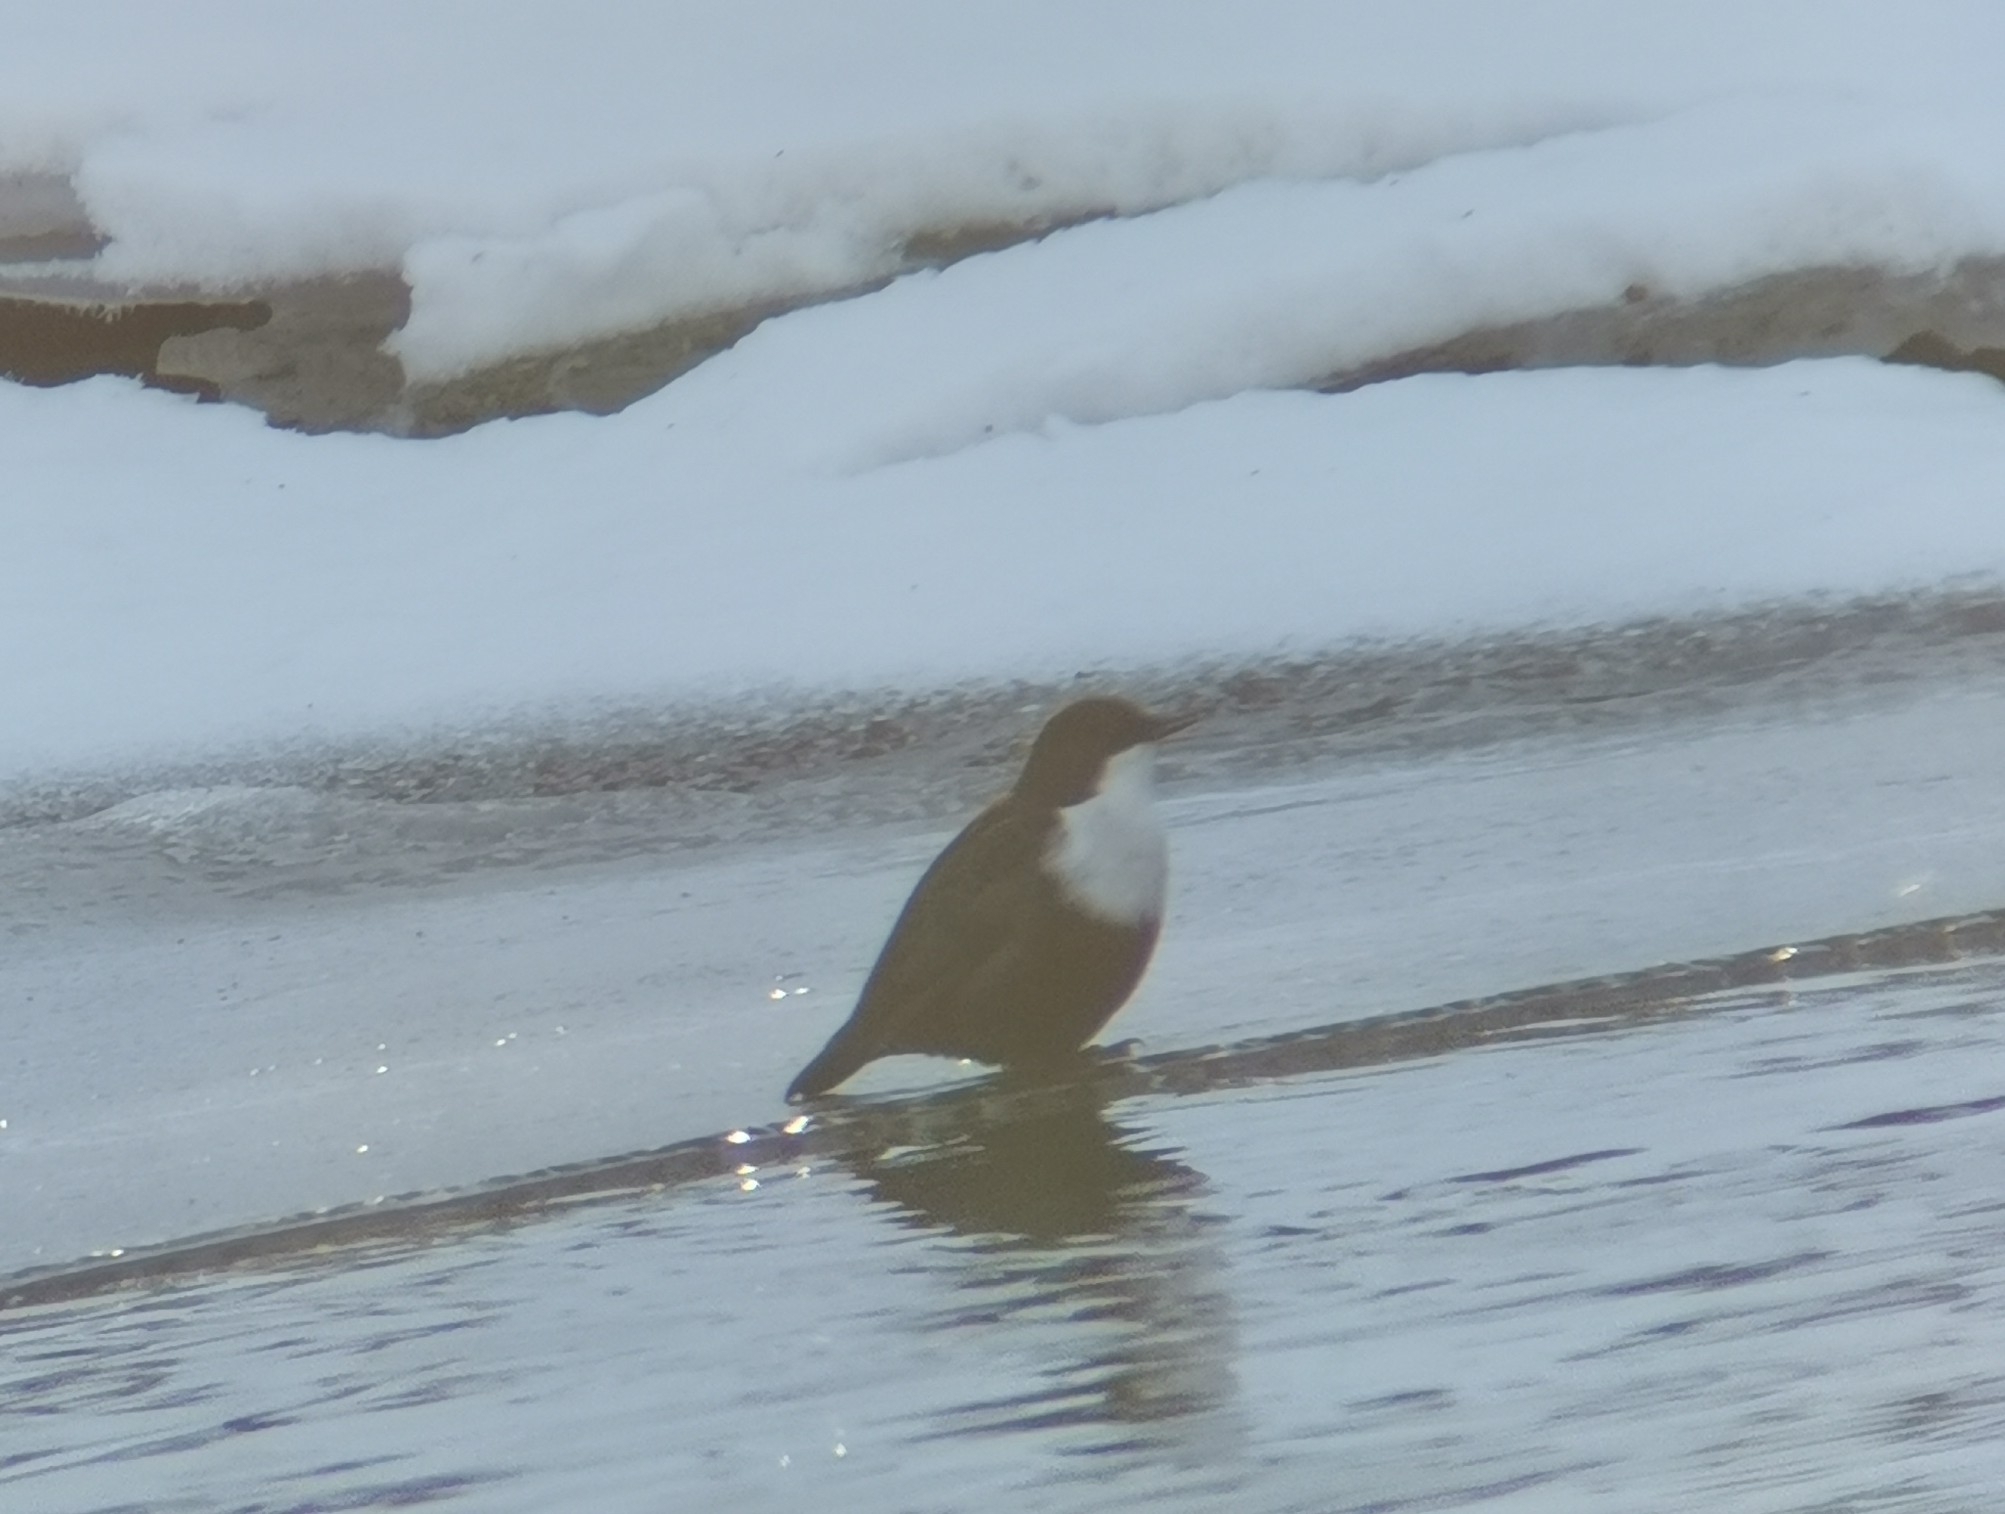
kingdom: Animalia
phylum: Chordata
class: Aves
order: Passeriformes
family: Cinclidae
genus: Cinclus
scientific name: Cinclus cinclus
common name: White-throated dipper
